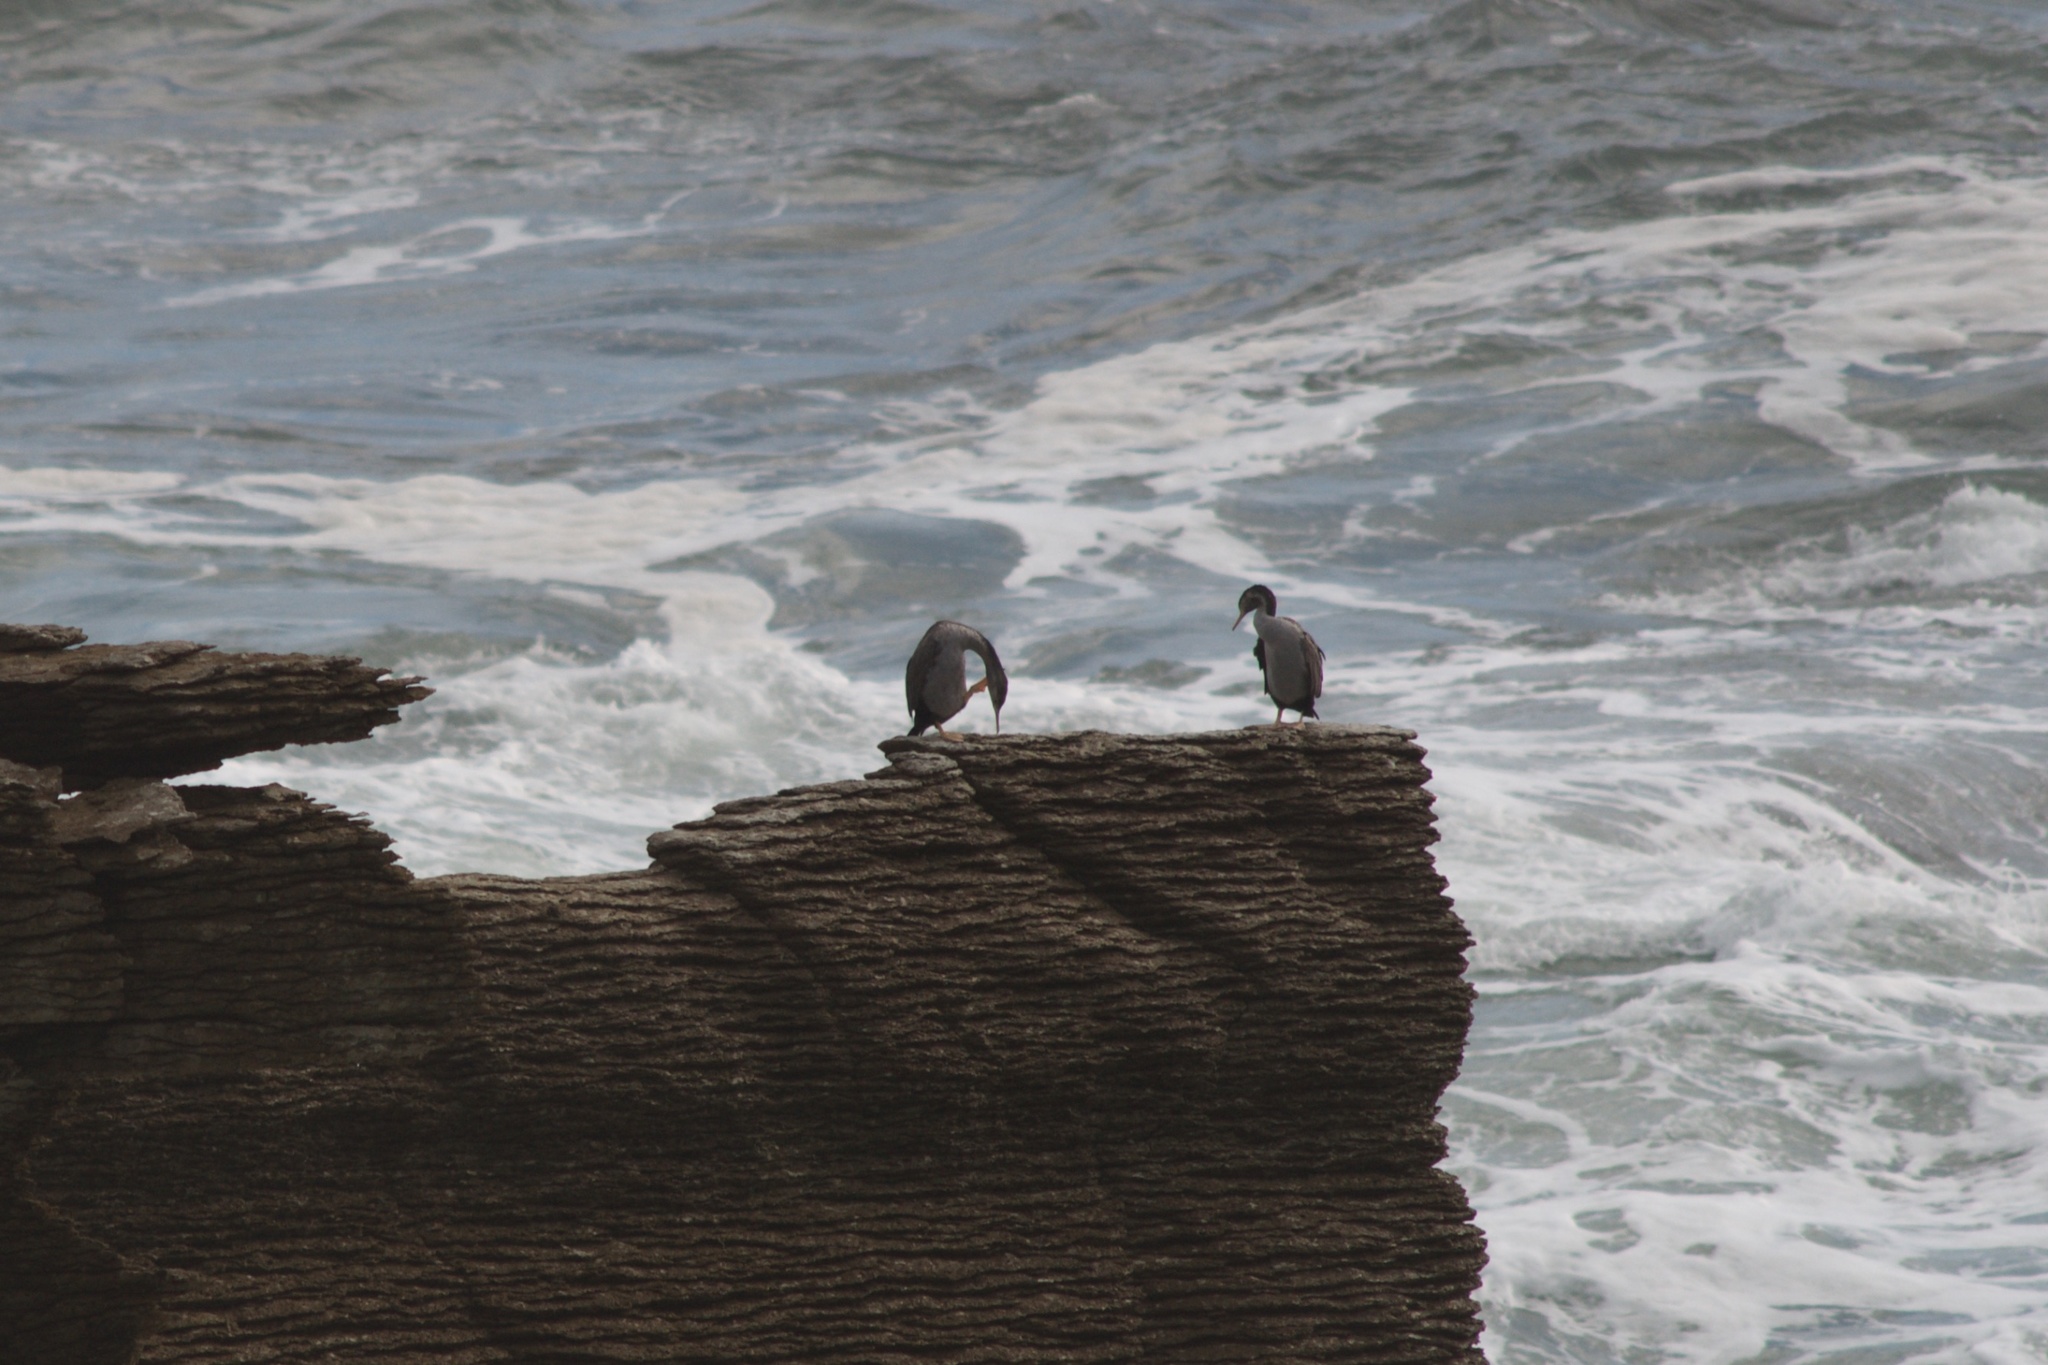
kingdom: Animalia
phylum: Chordata
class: Aves
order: Suliformes
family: Phalacrocoracidae
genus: Phalacrocorax
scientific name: Phalacrocorax punctatus
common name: Spotted shag
